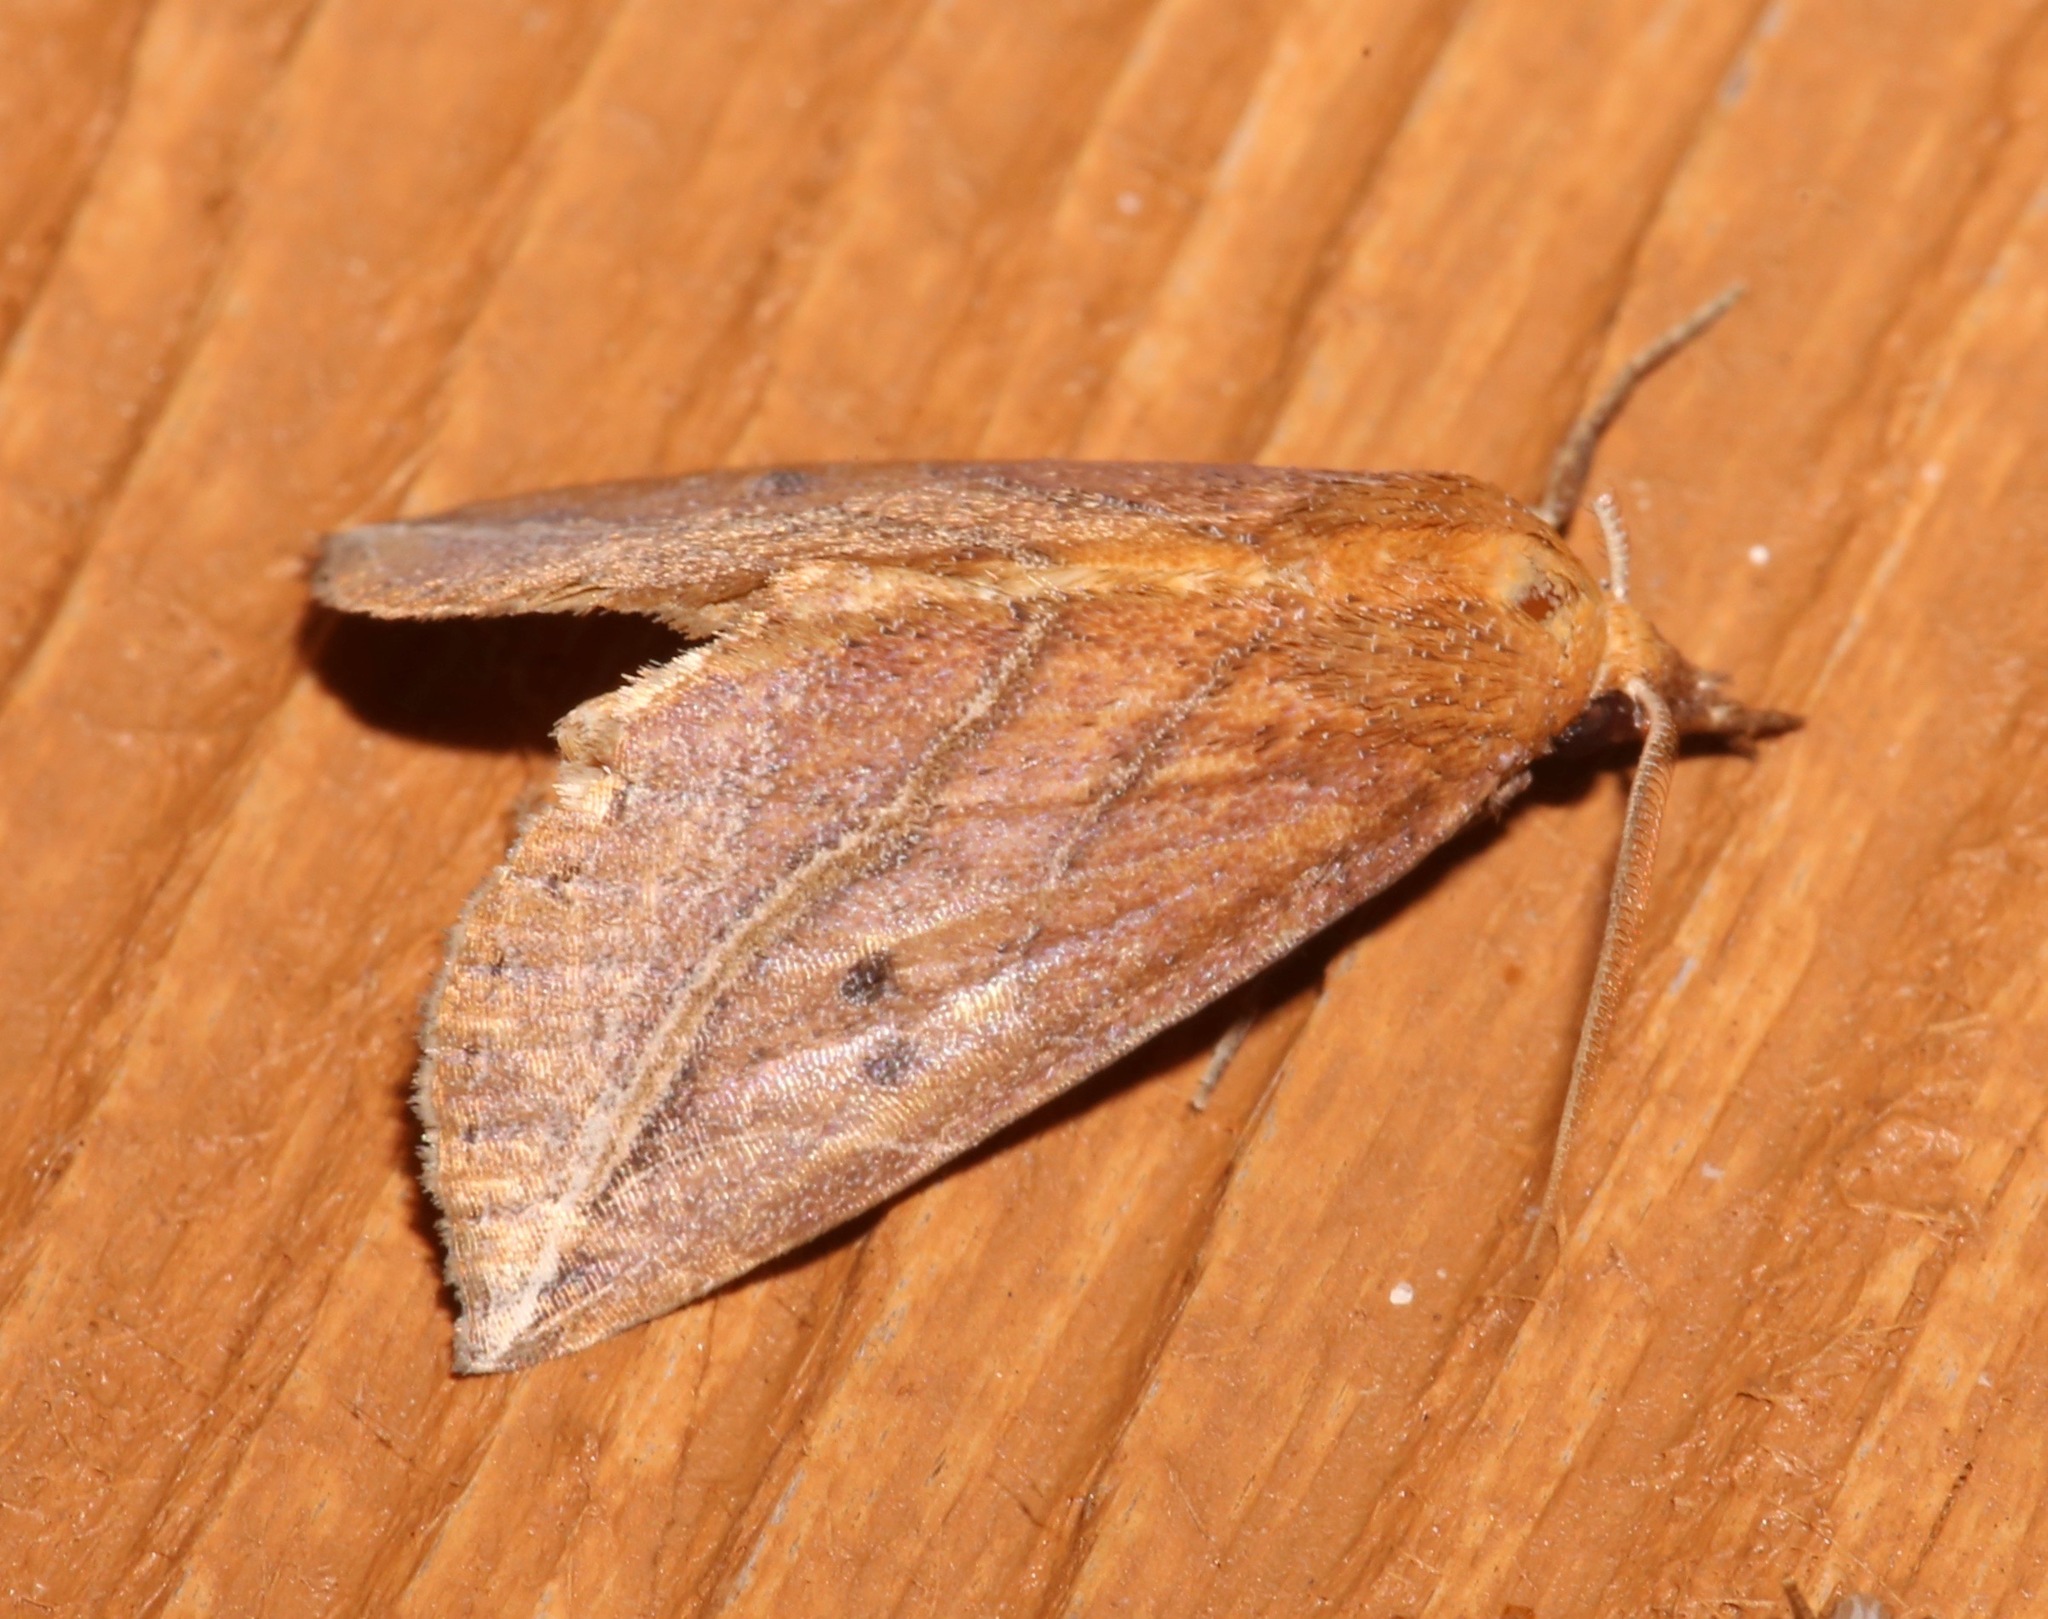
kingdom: Animalia
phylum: Arthropoda
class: Insecta
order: Lepidoptera
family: Erebidae
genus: Phyprosopus
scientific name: Phyprosopus callitrichoides
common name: Curved-lined owlet
